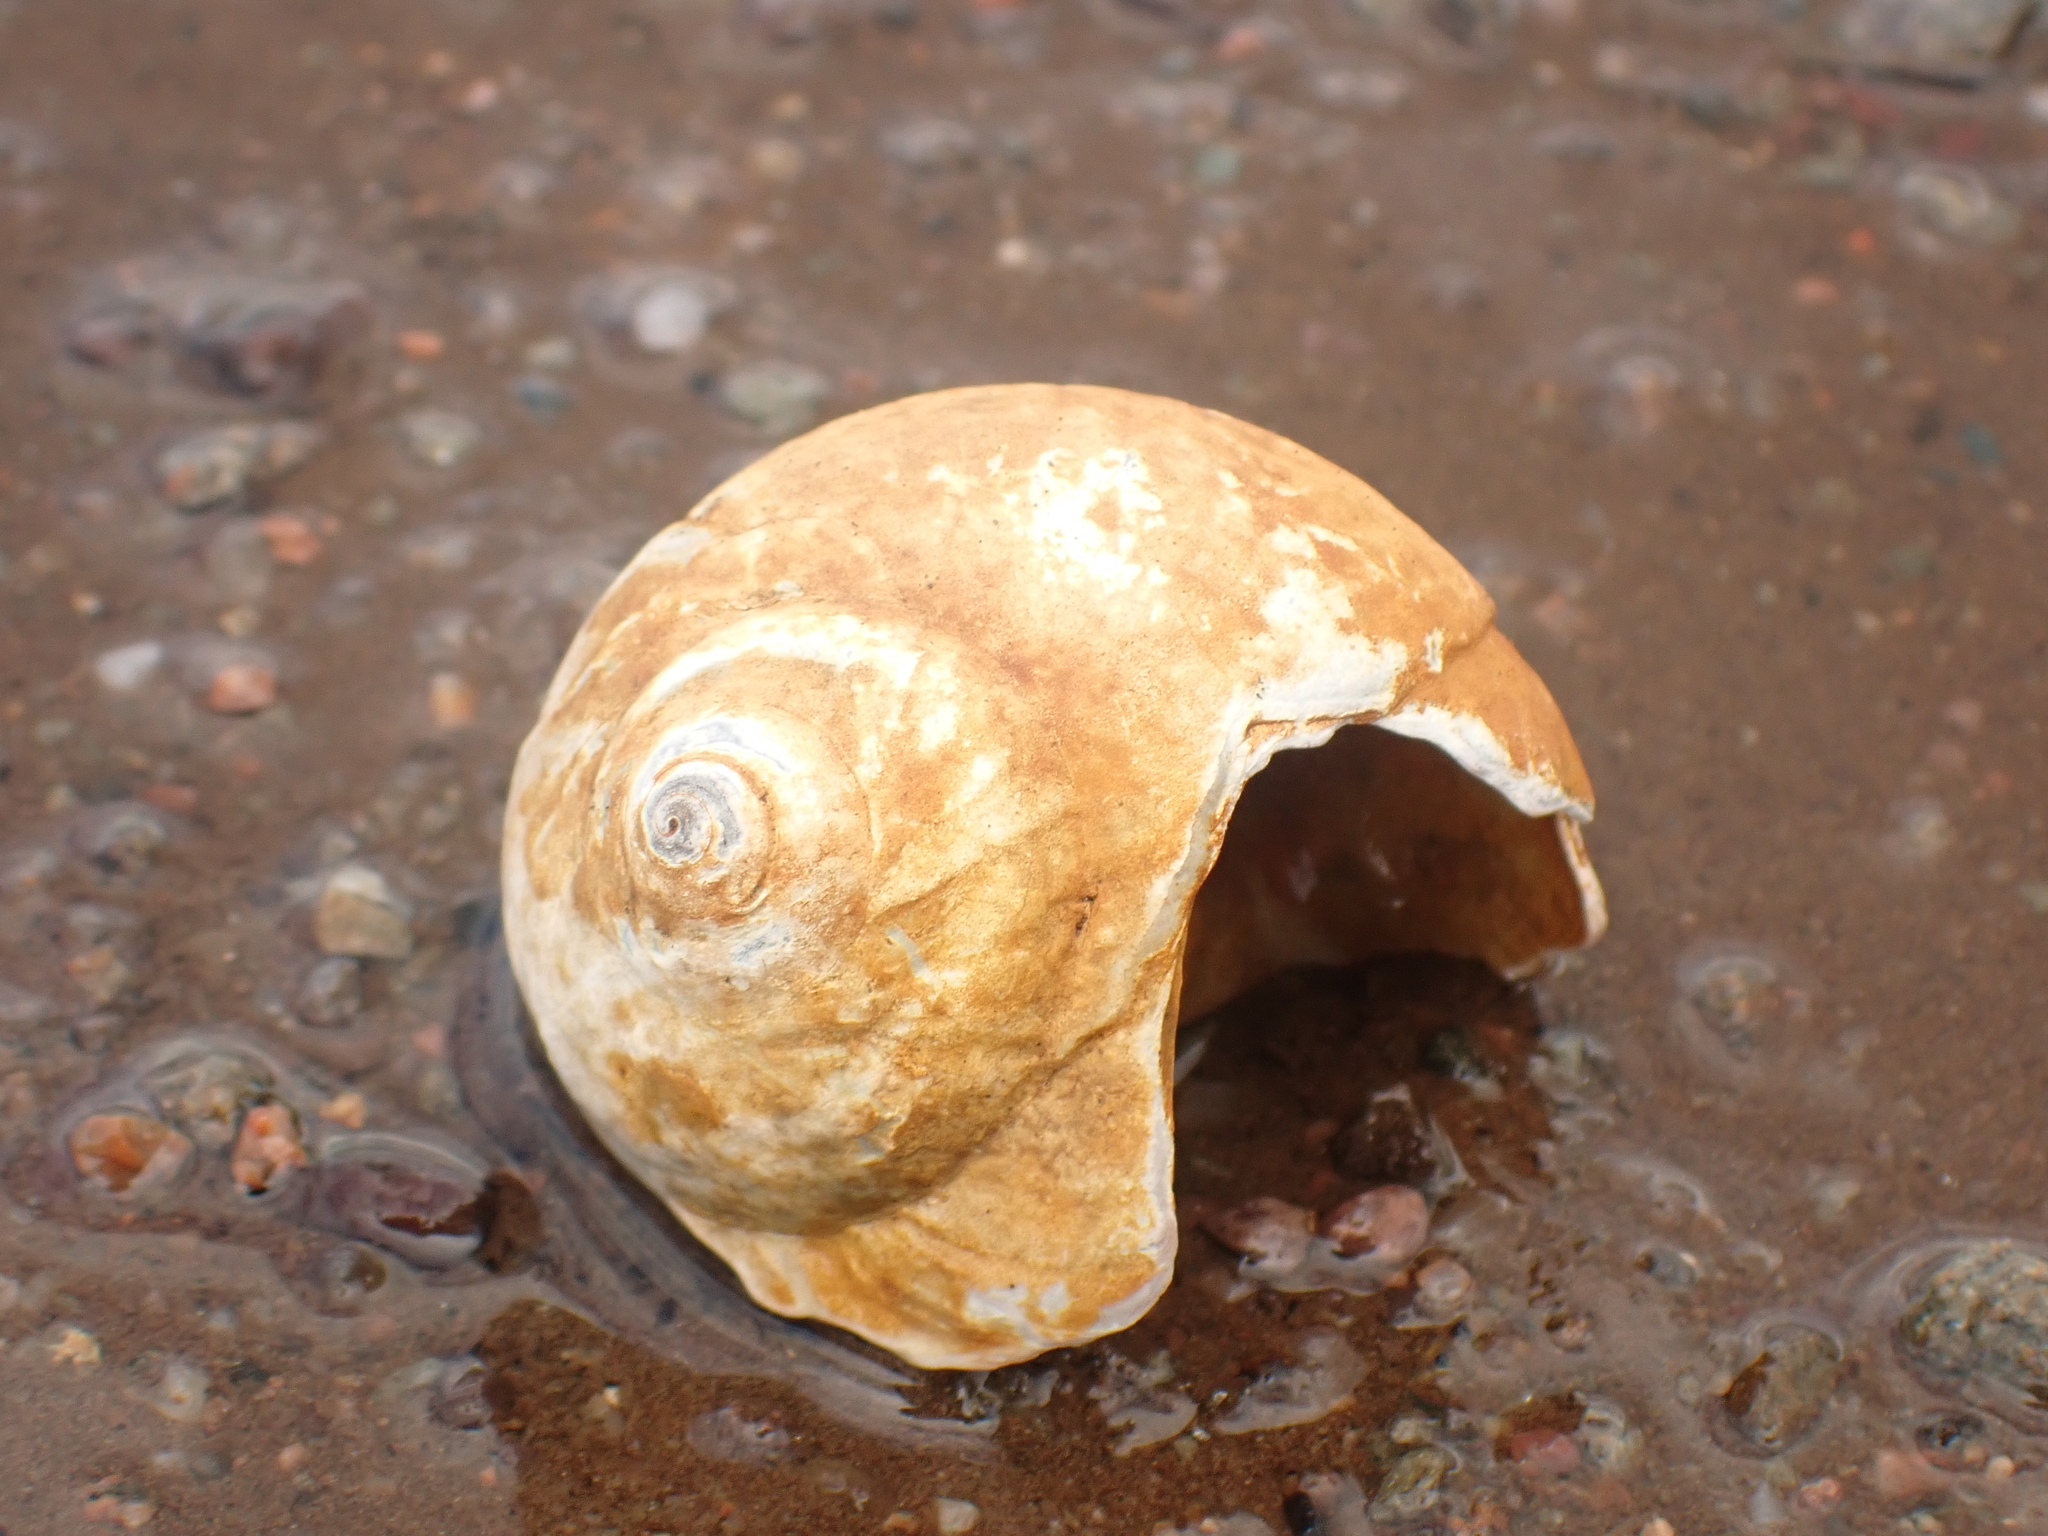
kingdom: Animalia
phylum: Mollusca
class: Gastropoda
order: Littorinimorpha
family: Naticidae
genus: Euspira
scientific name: Euspira heros
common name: Common northern moonsnail
